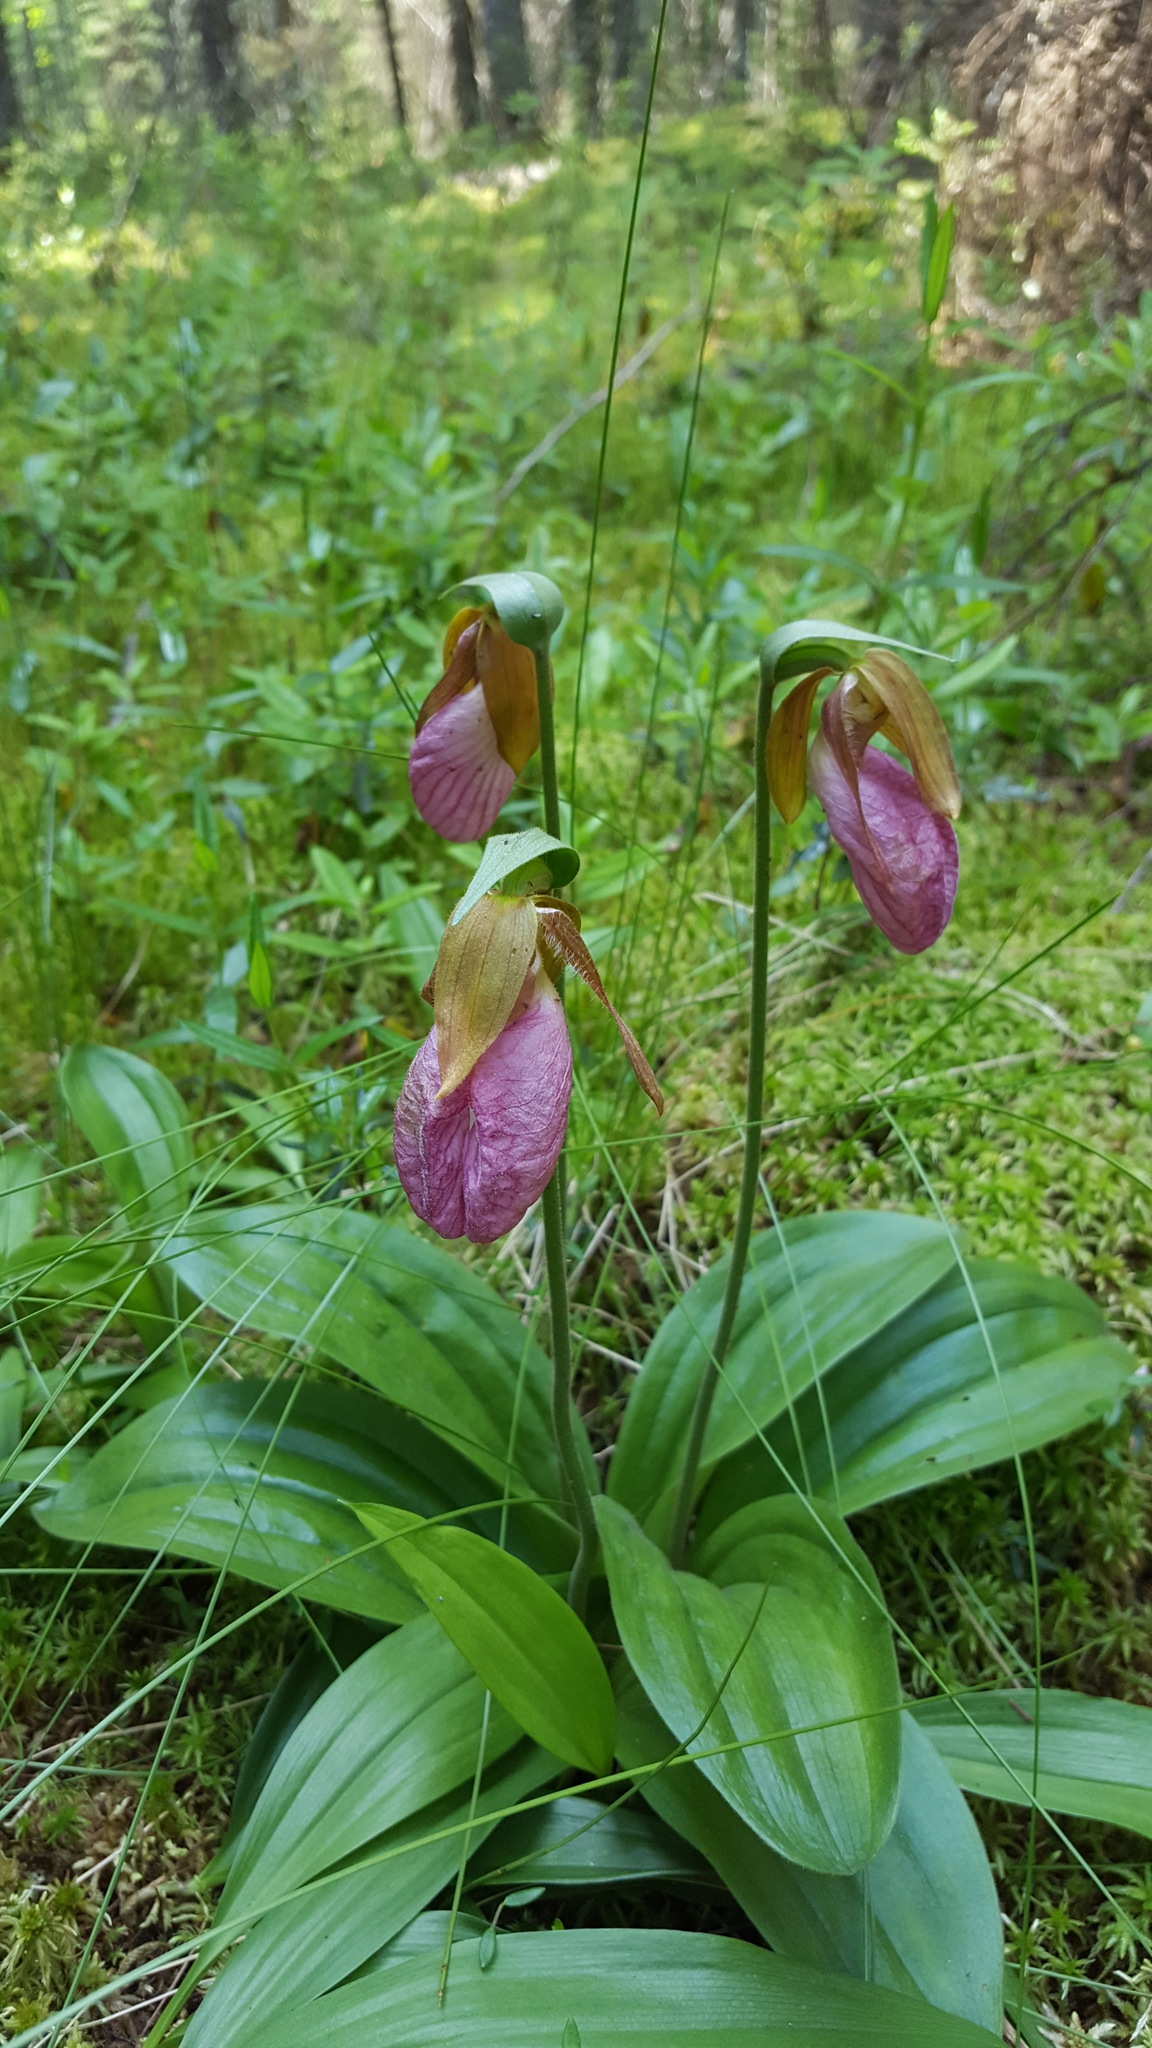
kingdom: Plantae
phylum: Tracheophyta
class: Liliopsida
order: Asparagales
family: Orchidaceae
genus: Cypripedium
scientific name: Cypripedium acaule
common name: Pink lady's-slipper
